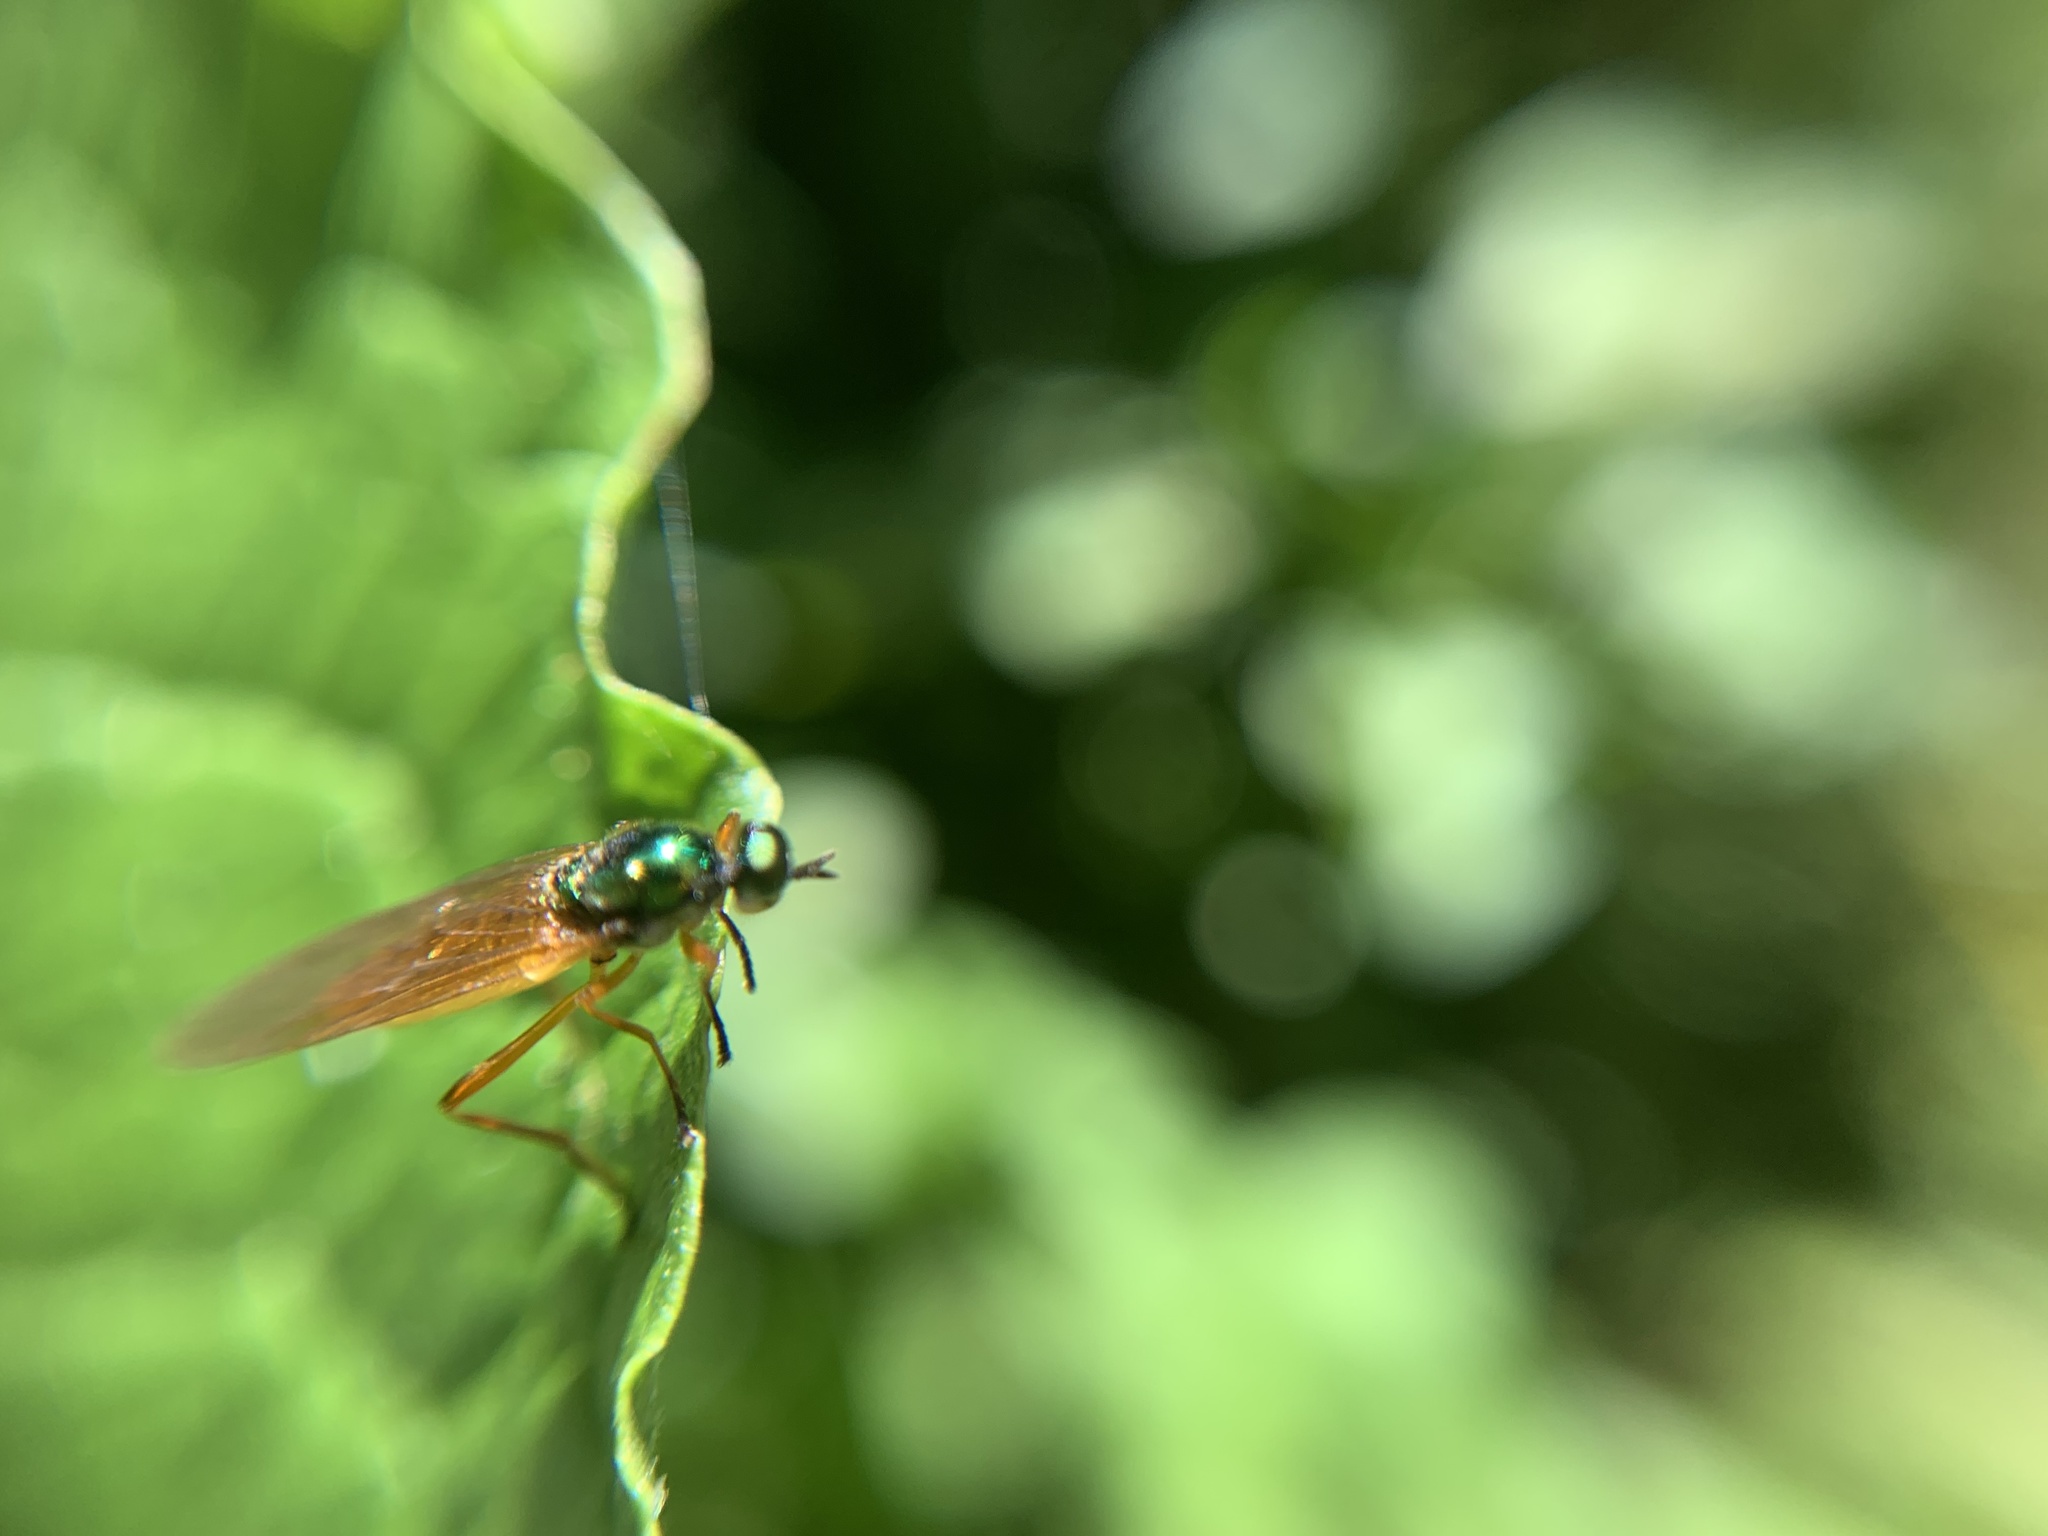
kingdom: Animalia
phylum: Arthropoda
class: Insecta
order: Diptera
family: Stratiomyidae
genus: Oplachantha
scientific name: Oplachantha pallida
